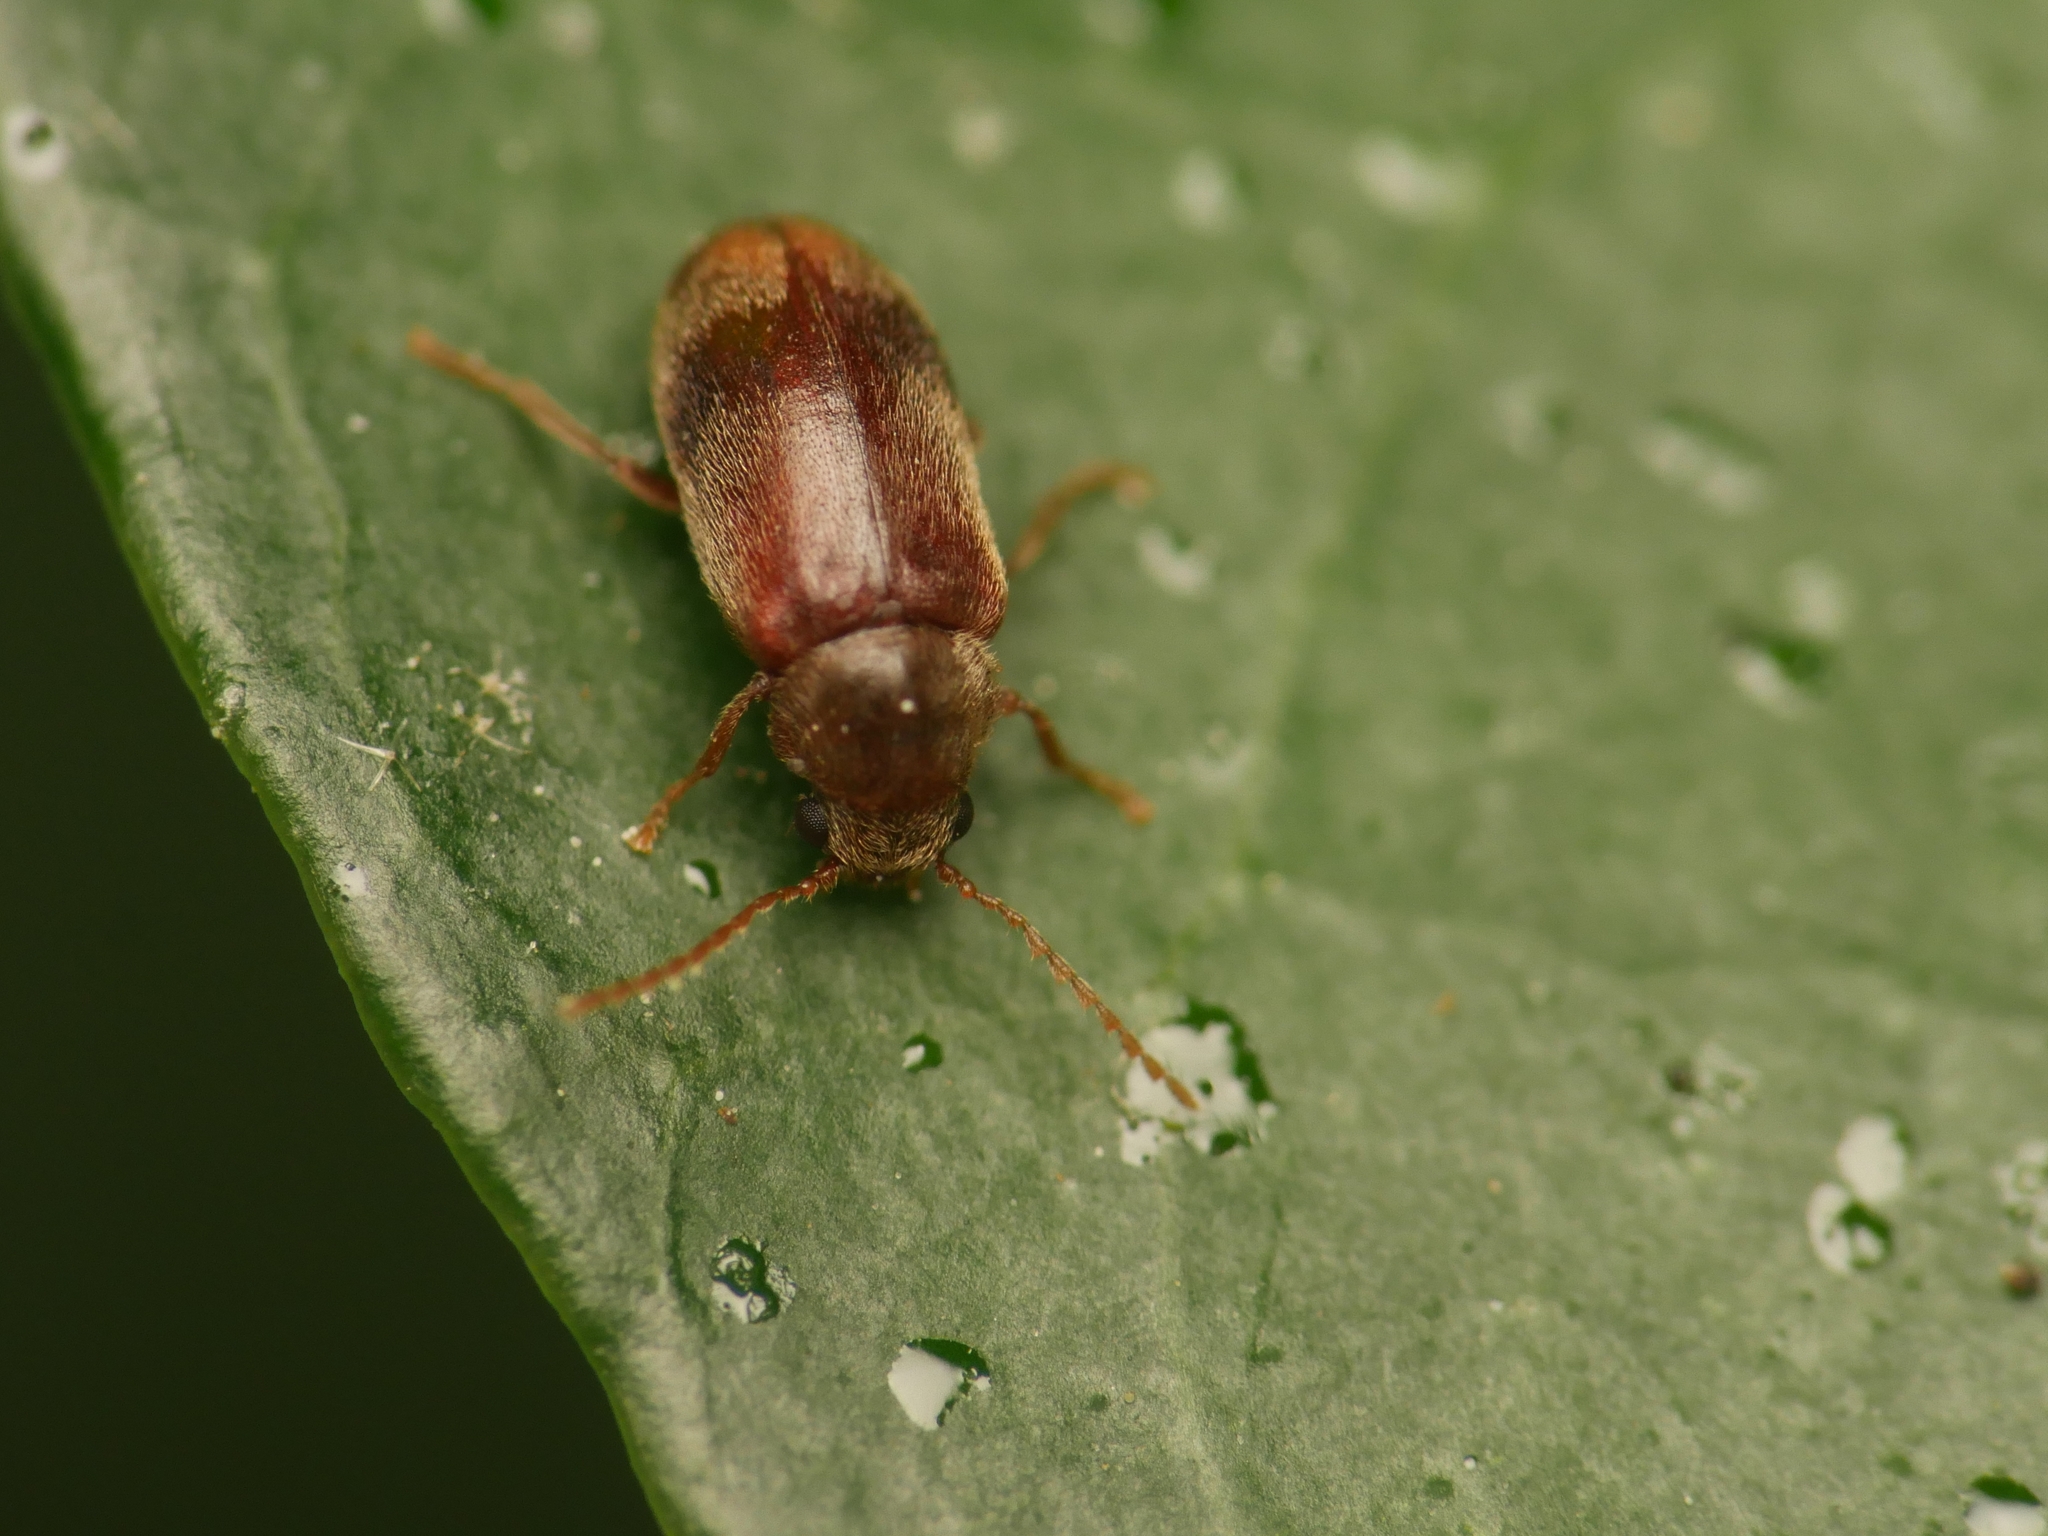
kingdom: Animalia
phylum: Arthropoda
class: Insecta
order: Coleoptera
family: Ptinidae
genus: Ochina
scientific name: Ochina ptinoides
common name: Ivy boring beetle
